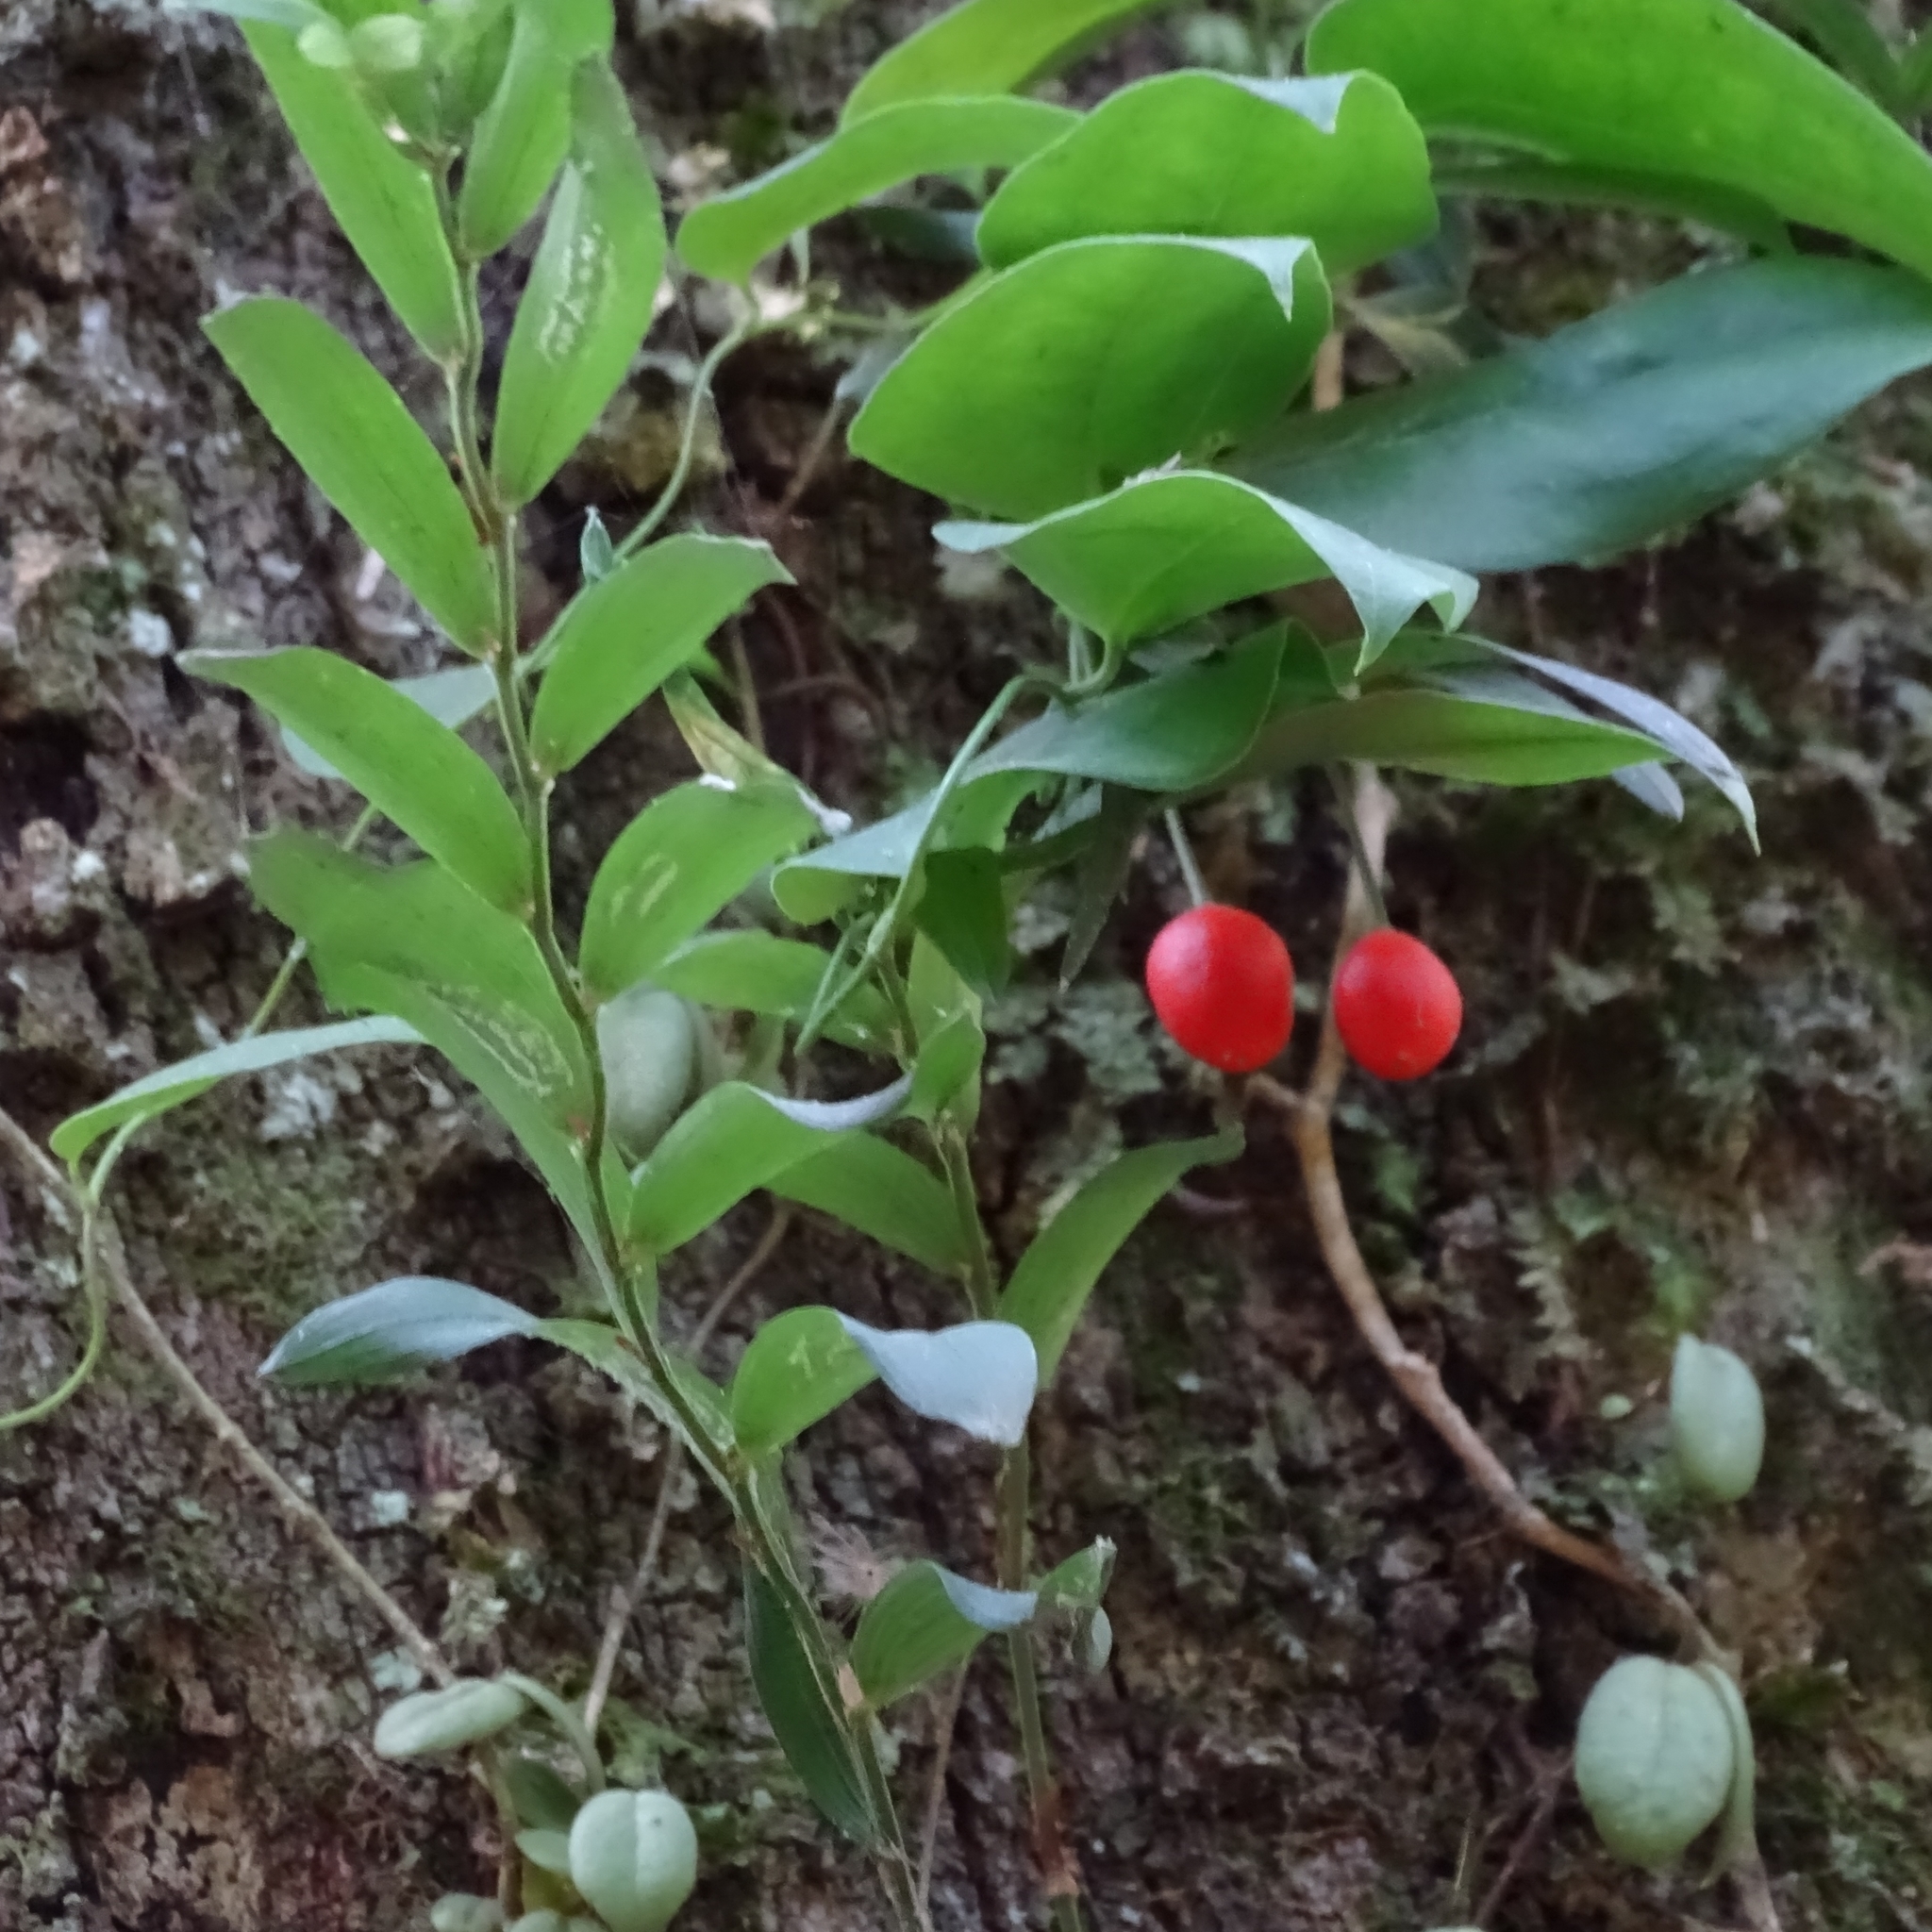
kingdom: Plantae
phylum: Tracheophyta
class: Liliopsida
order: Liliales
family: Alstroemeriaceae
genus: Luzuriaga
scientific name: Luzuriaga radicans
